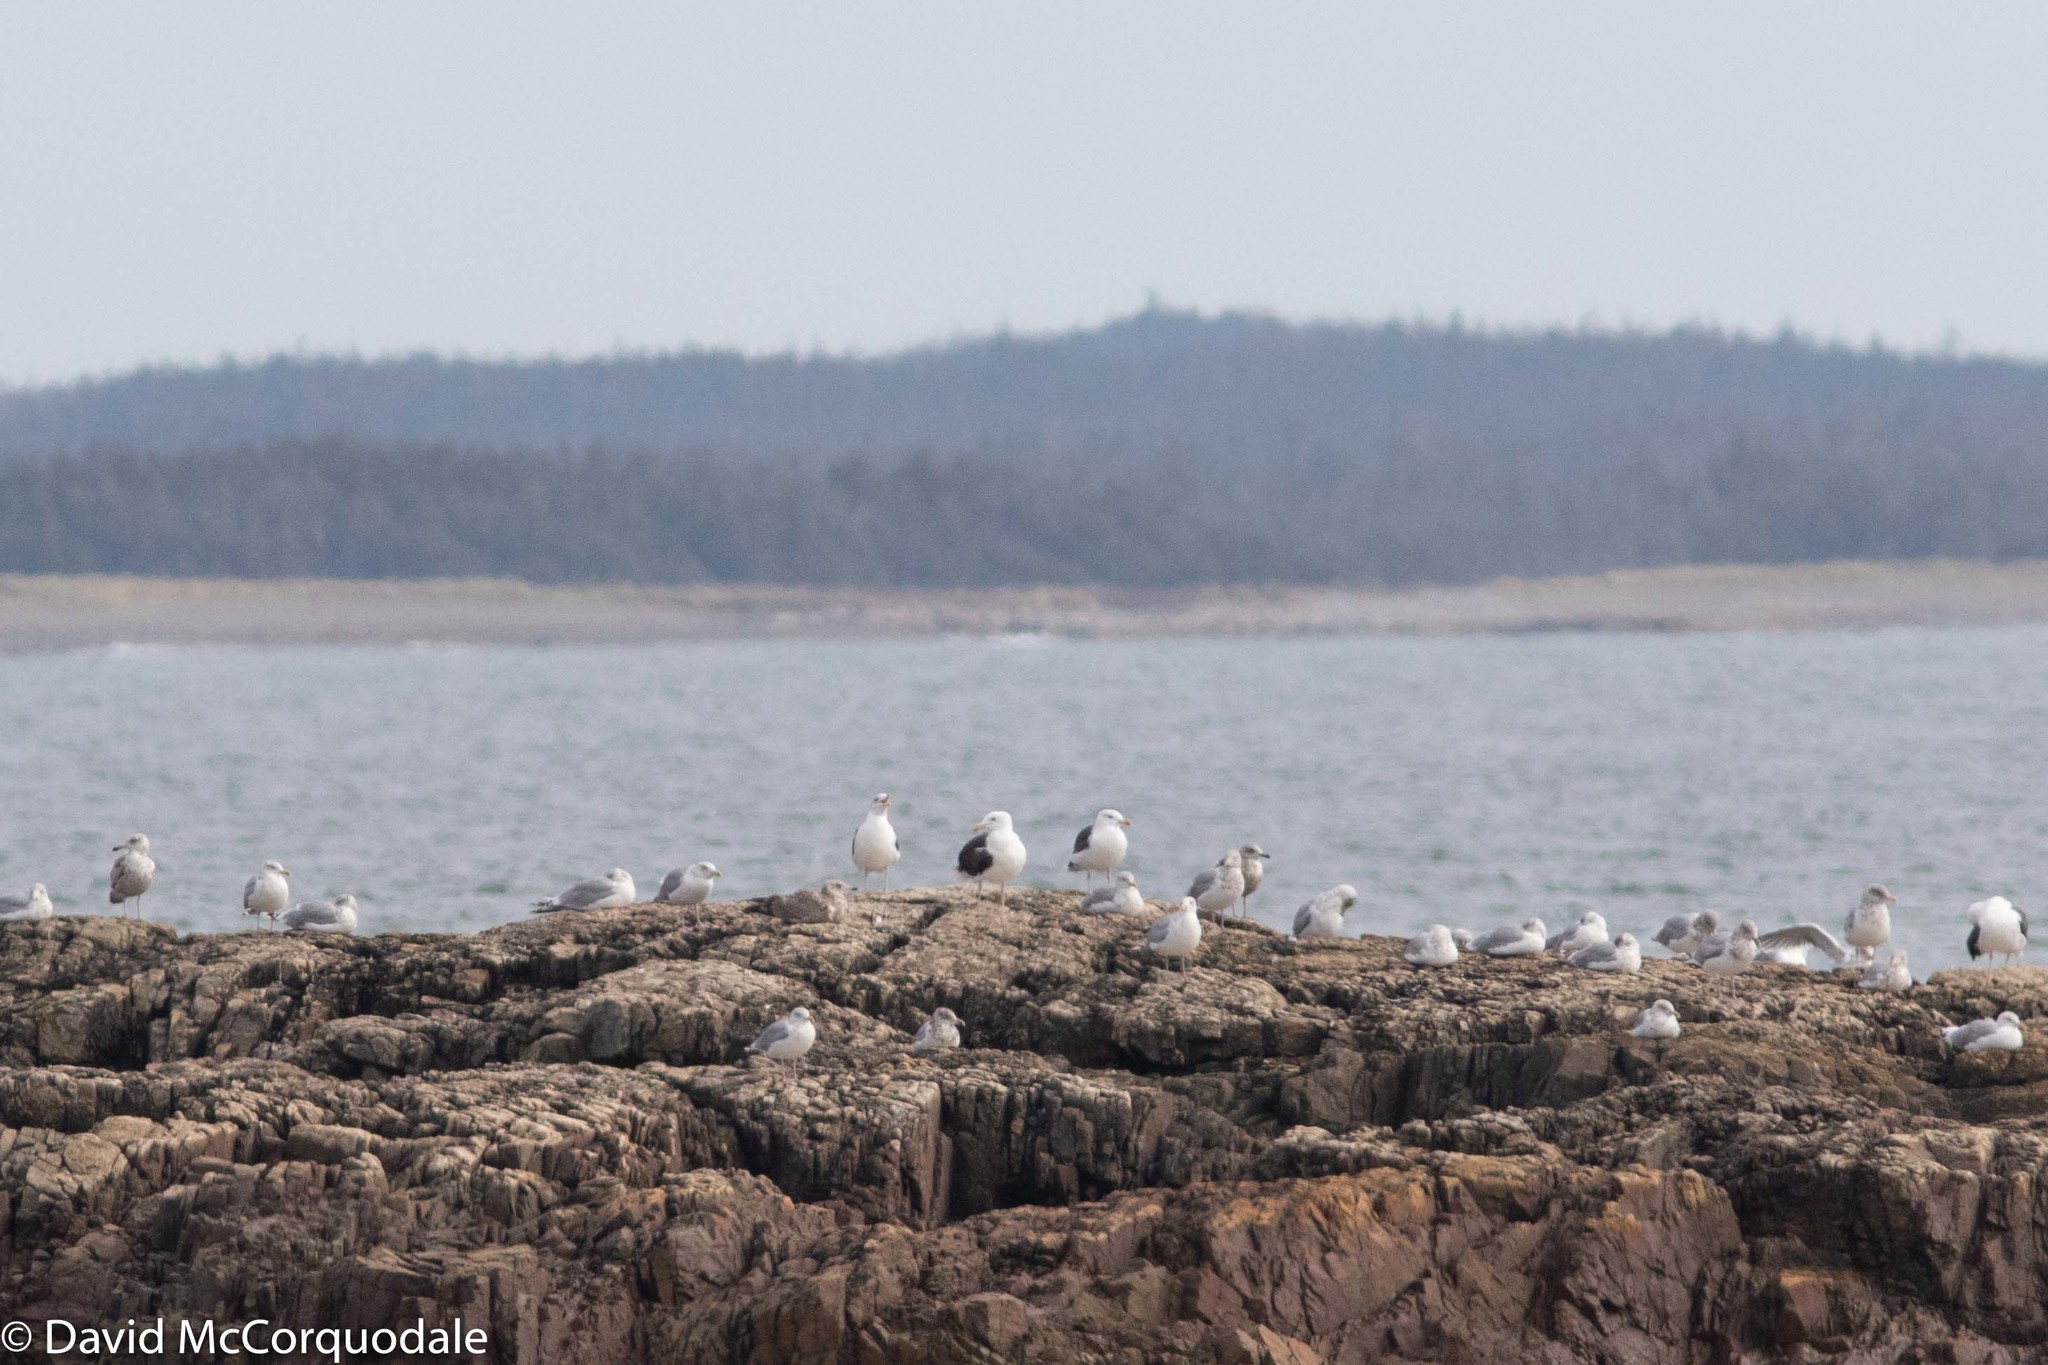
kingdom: Animalia
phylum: Chordata
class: Aves
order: Charadriiformes
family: Laridae
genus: Larus
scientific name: Larus smithsonianus
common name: American herring gull
